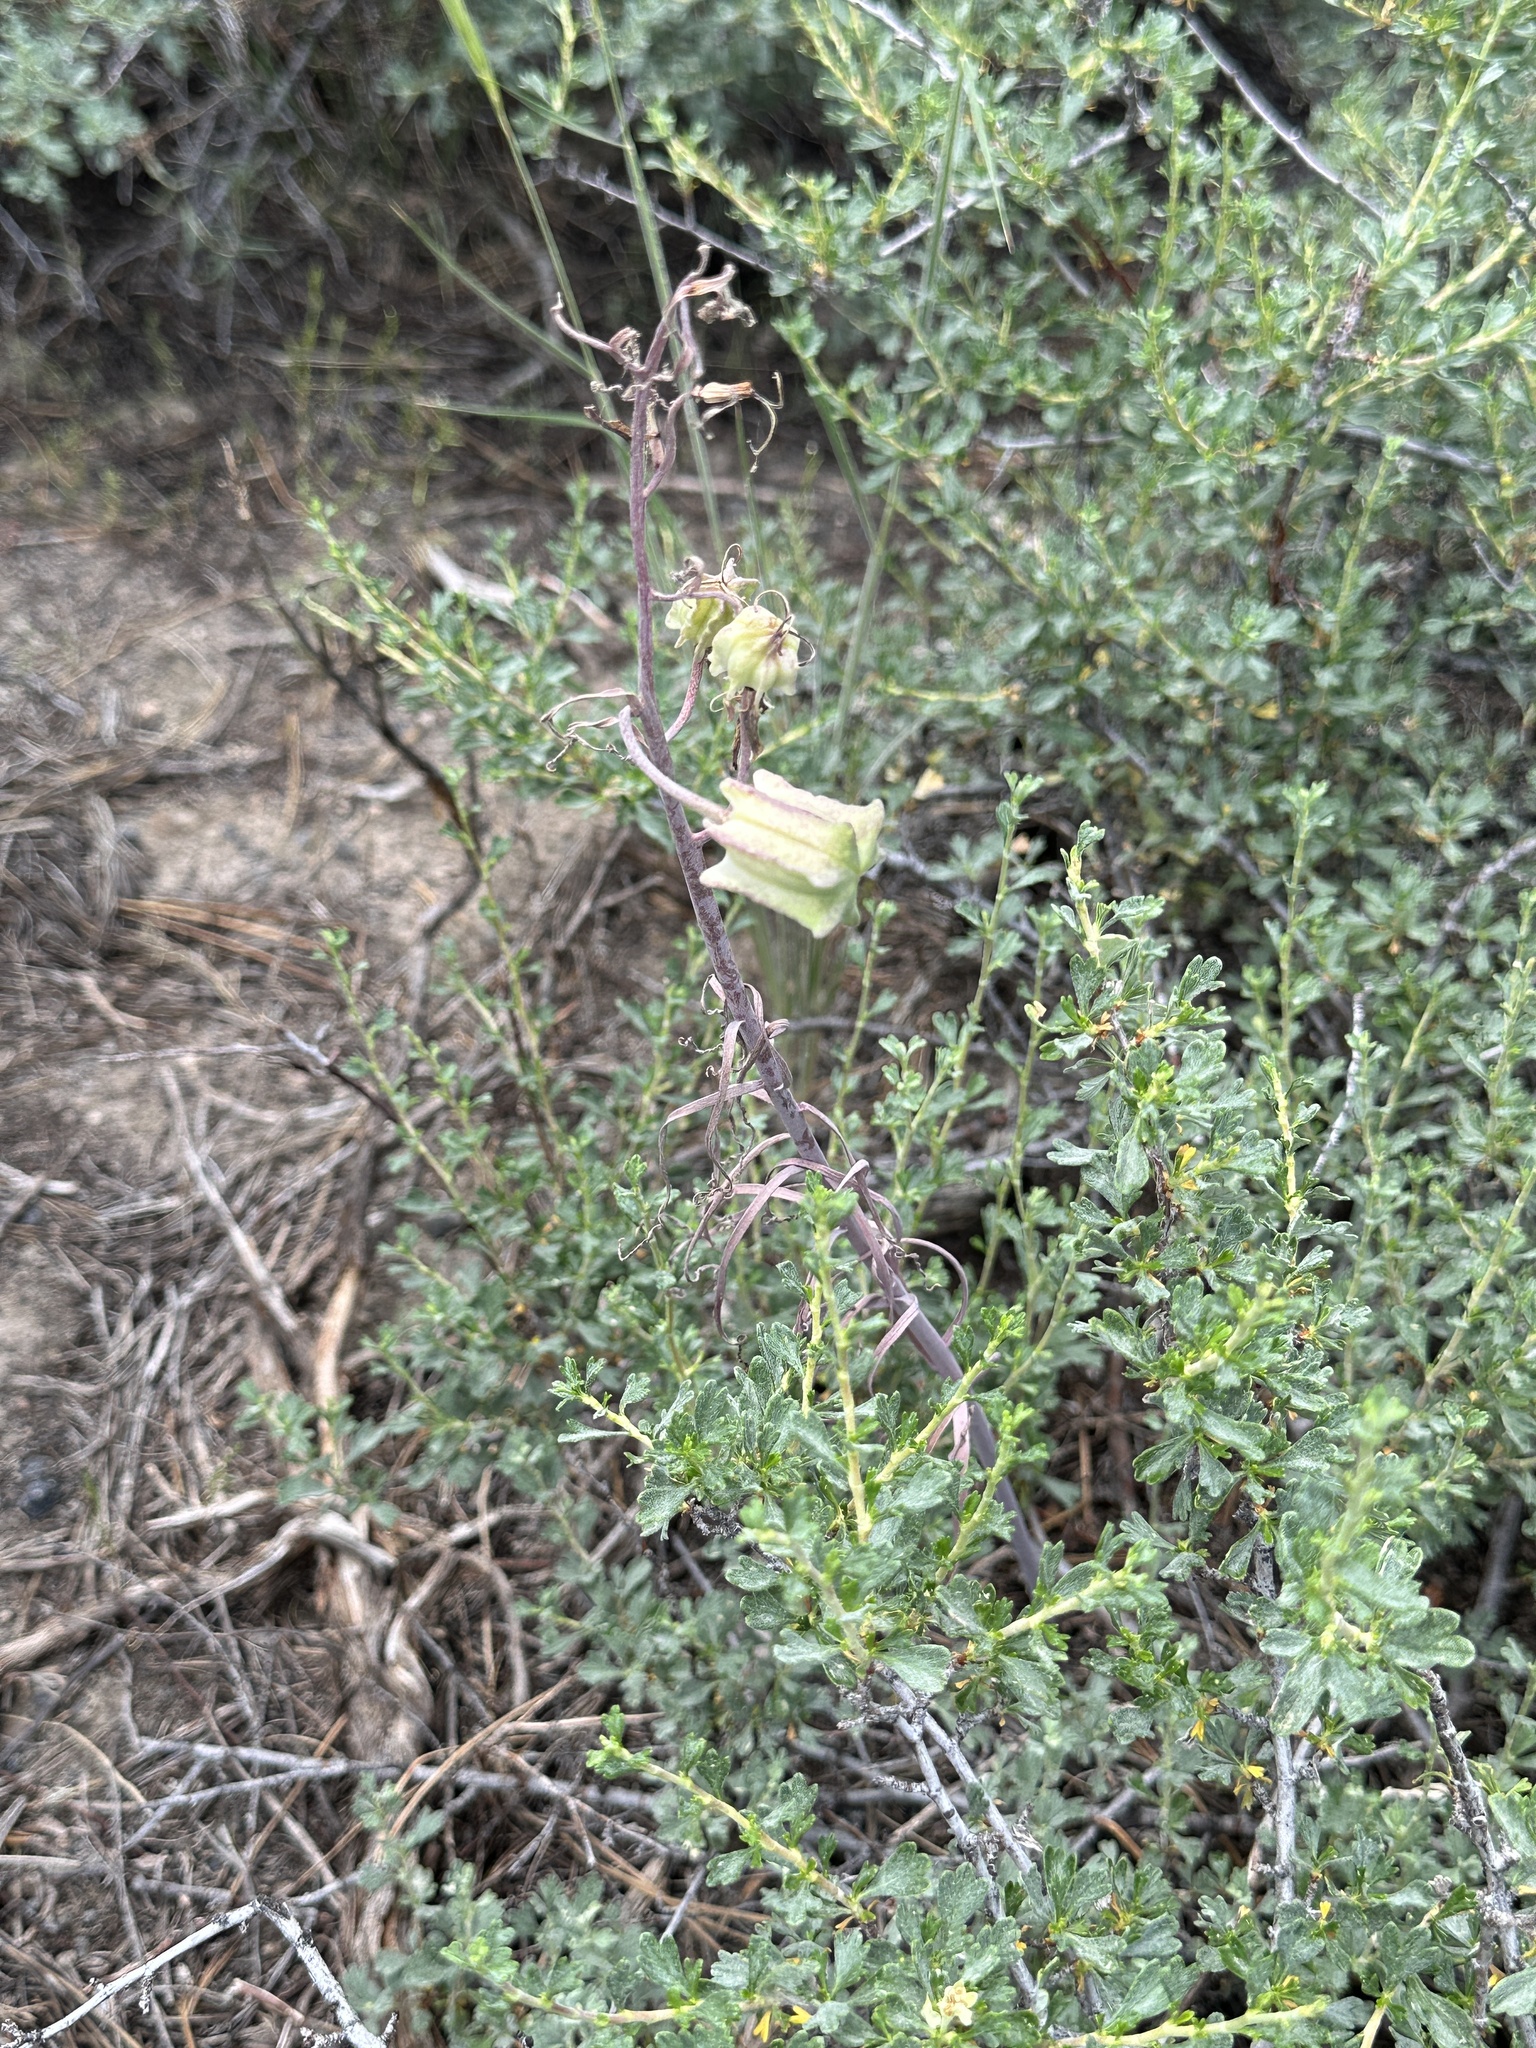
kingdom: Plantae
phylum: Tracheophyta
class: Liliopsida
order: Liliales
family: Liliaceae
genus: Fritillaria
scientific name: Fritillaria pinetorum
